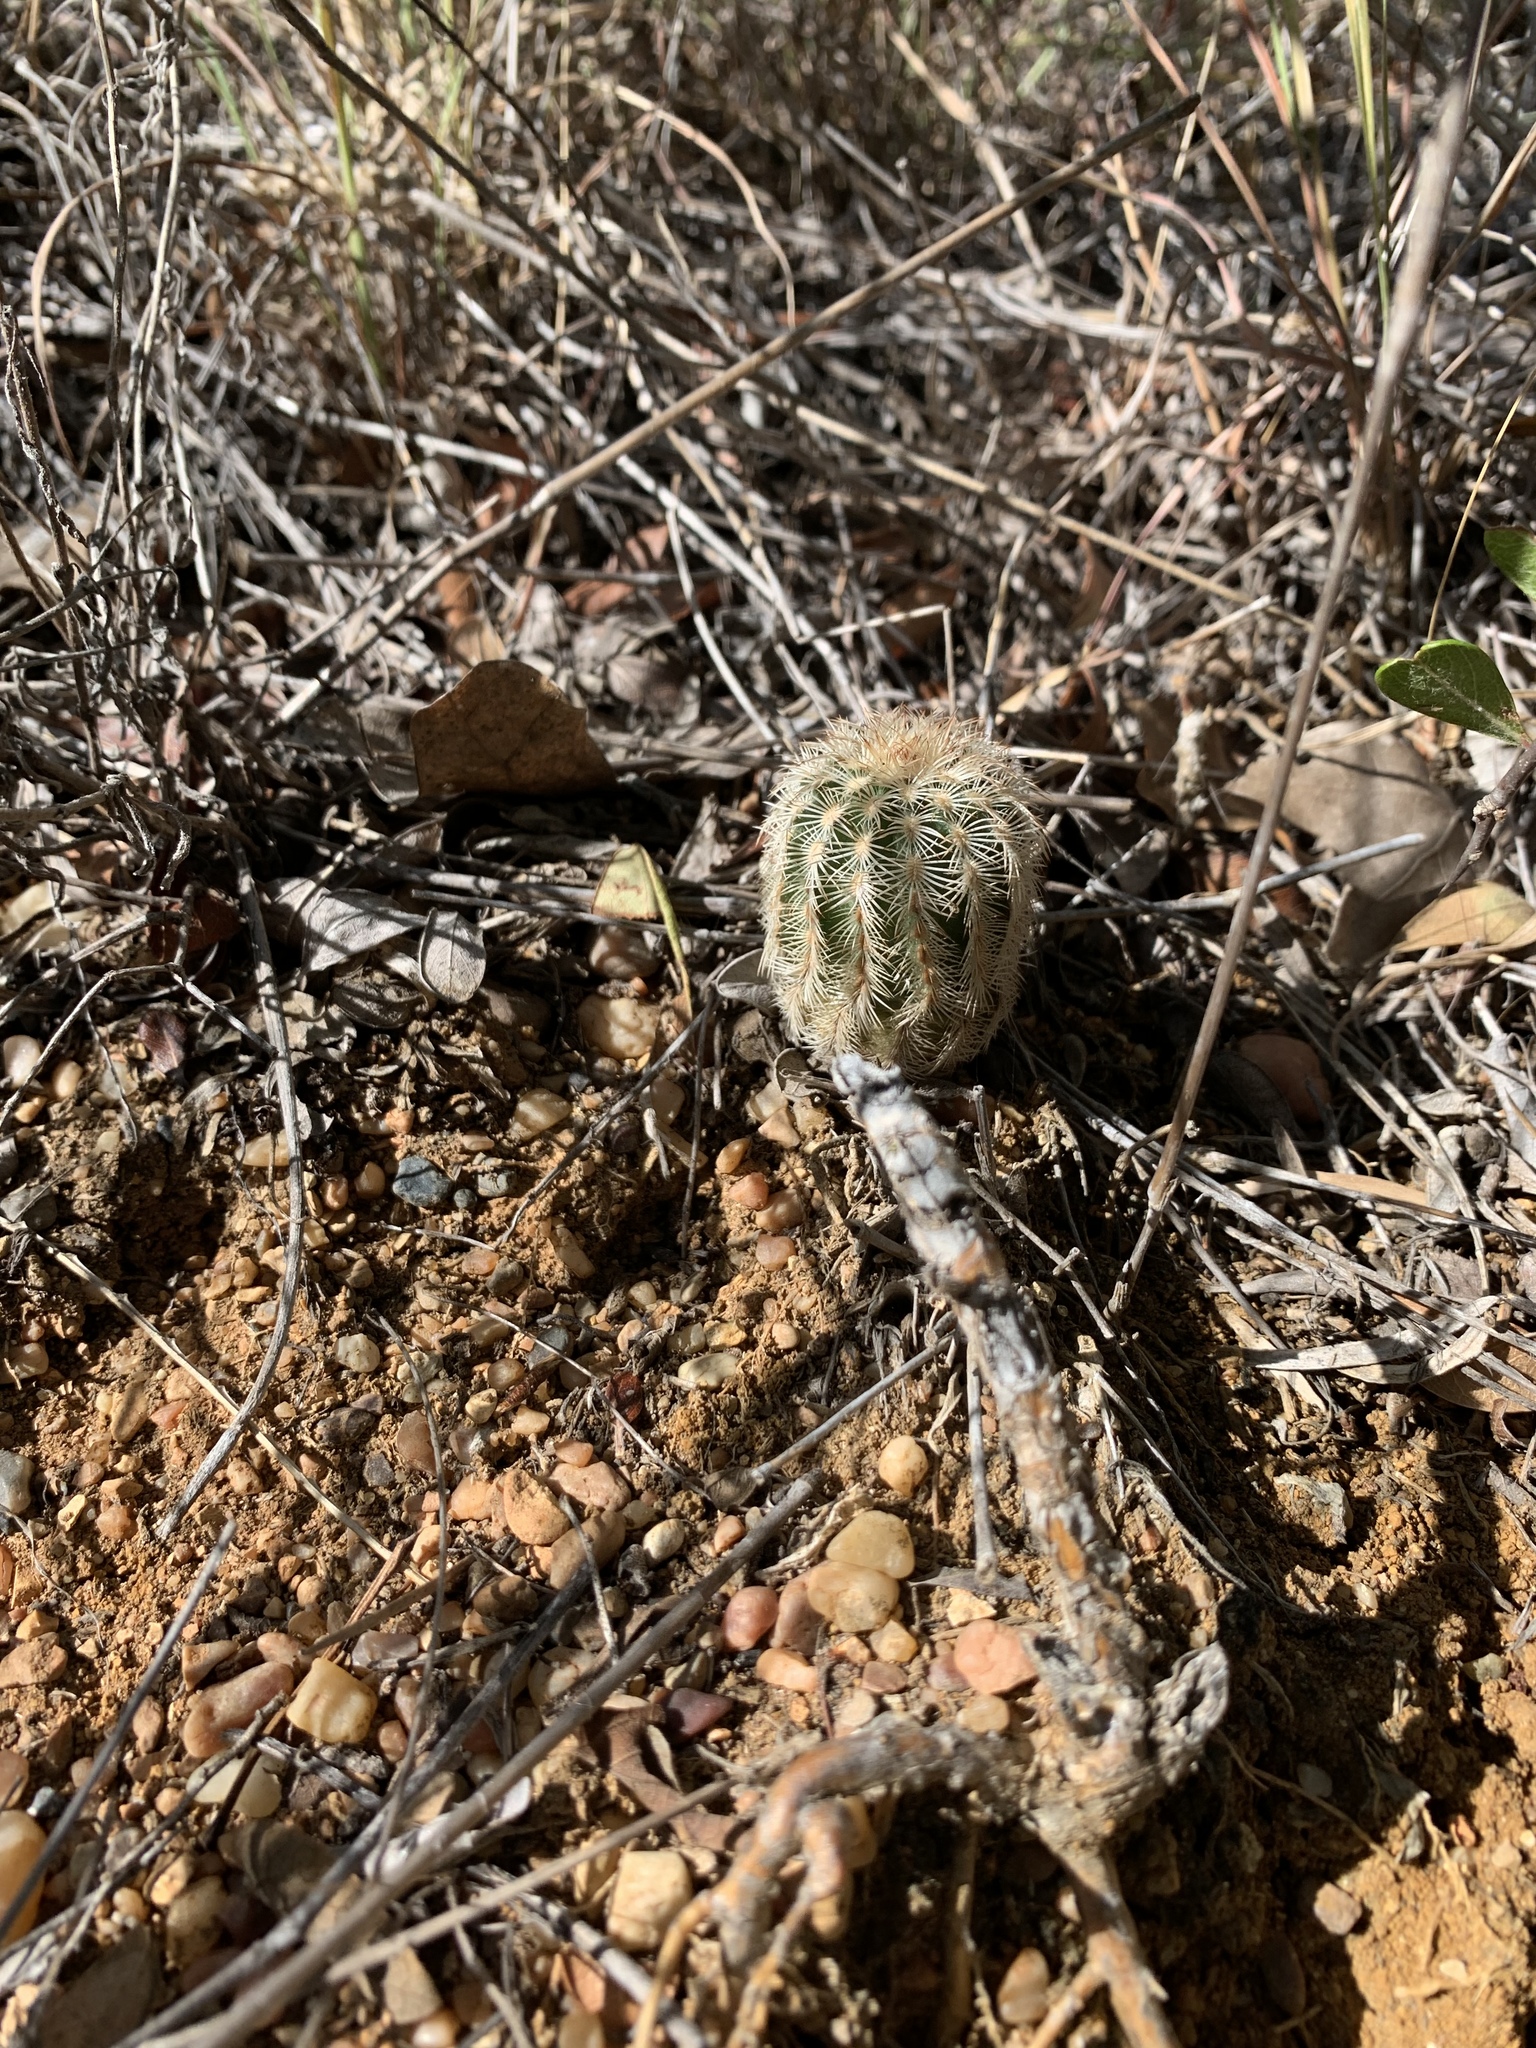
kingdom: Plantae
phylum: Tracheophyta
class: Magnoliopsida
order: Caryophyllales
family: Cactaceae
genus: Echinocereus
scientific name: Echinocereus reichenbachii
